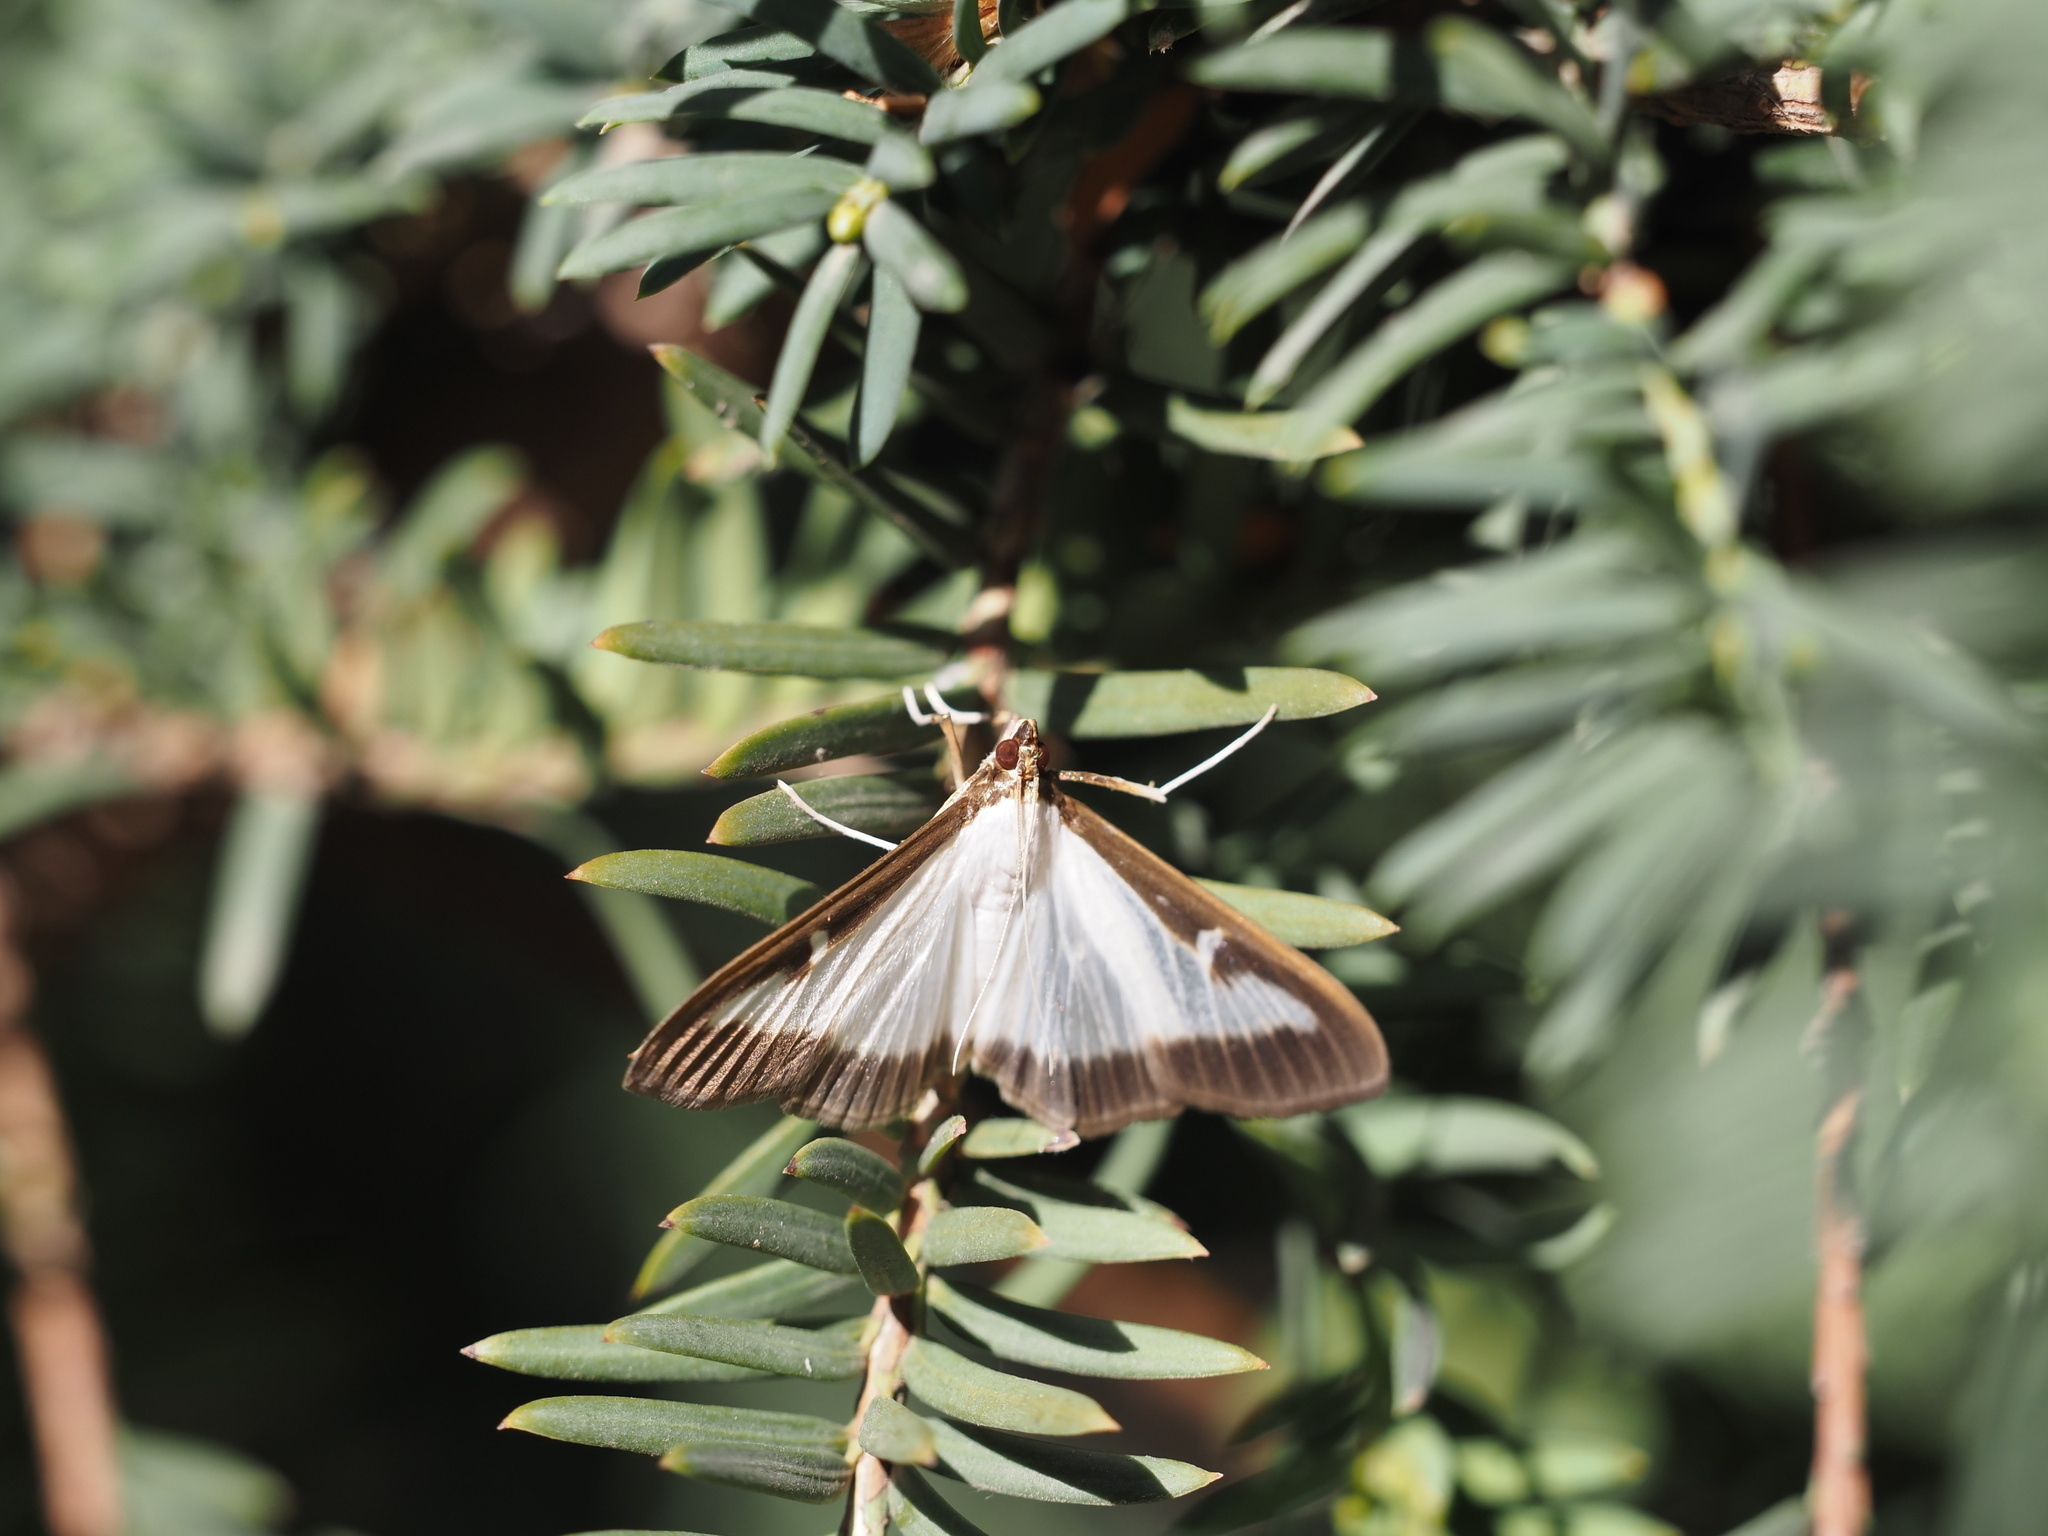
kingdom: Animalia
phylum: Arthropoda
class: Insecta
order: Lepidoptera
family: Crambidae
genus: Cydalima
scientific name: Cydalima perspectalis
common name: Box tree moth
